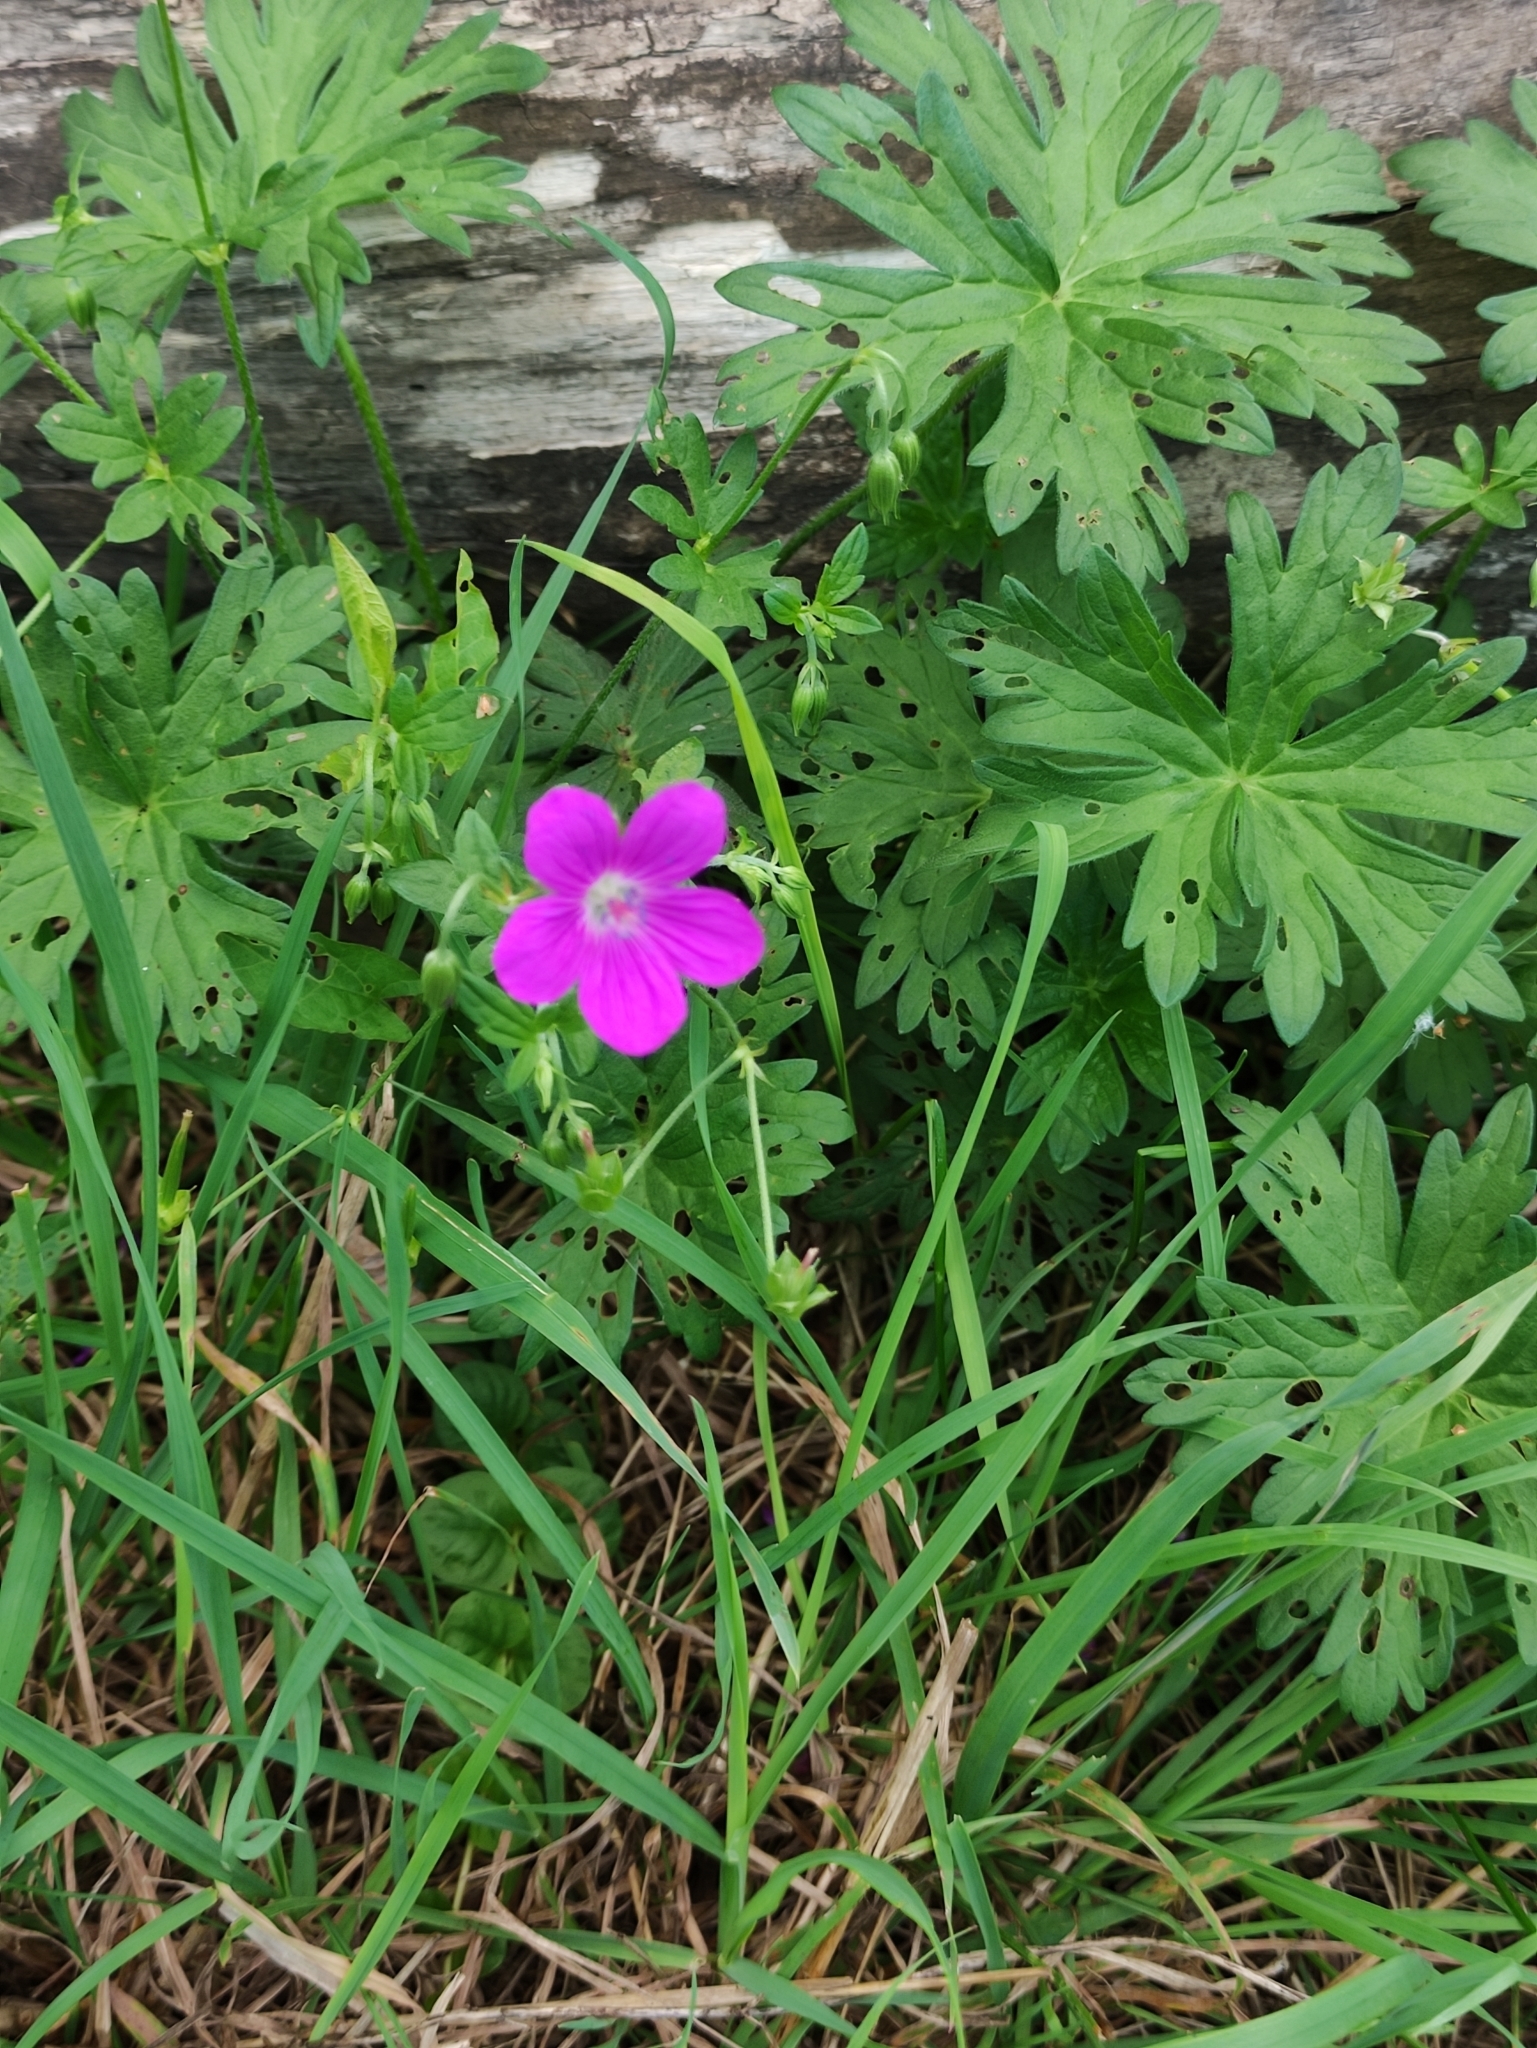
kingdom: Plantae
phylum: Tracheophyta
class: Magnoliopsida
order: Geraniales
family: Geraniaceae
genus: Geranium
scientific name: Geranium palustre
